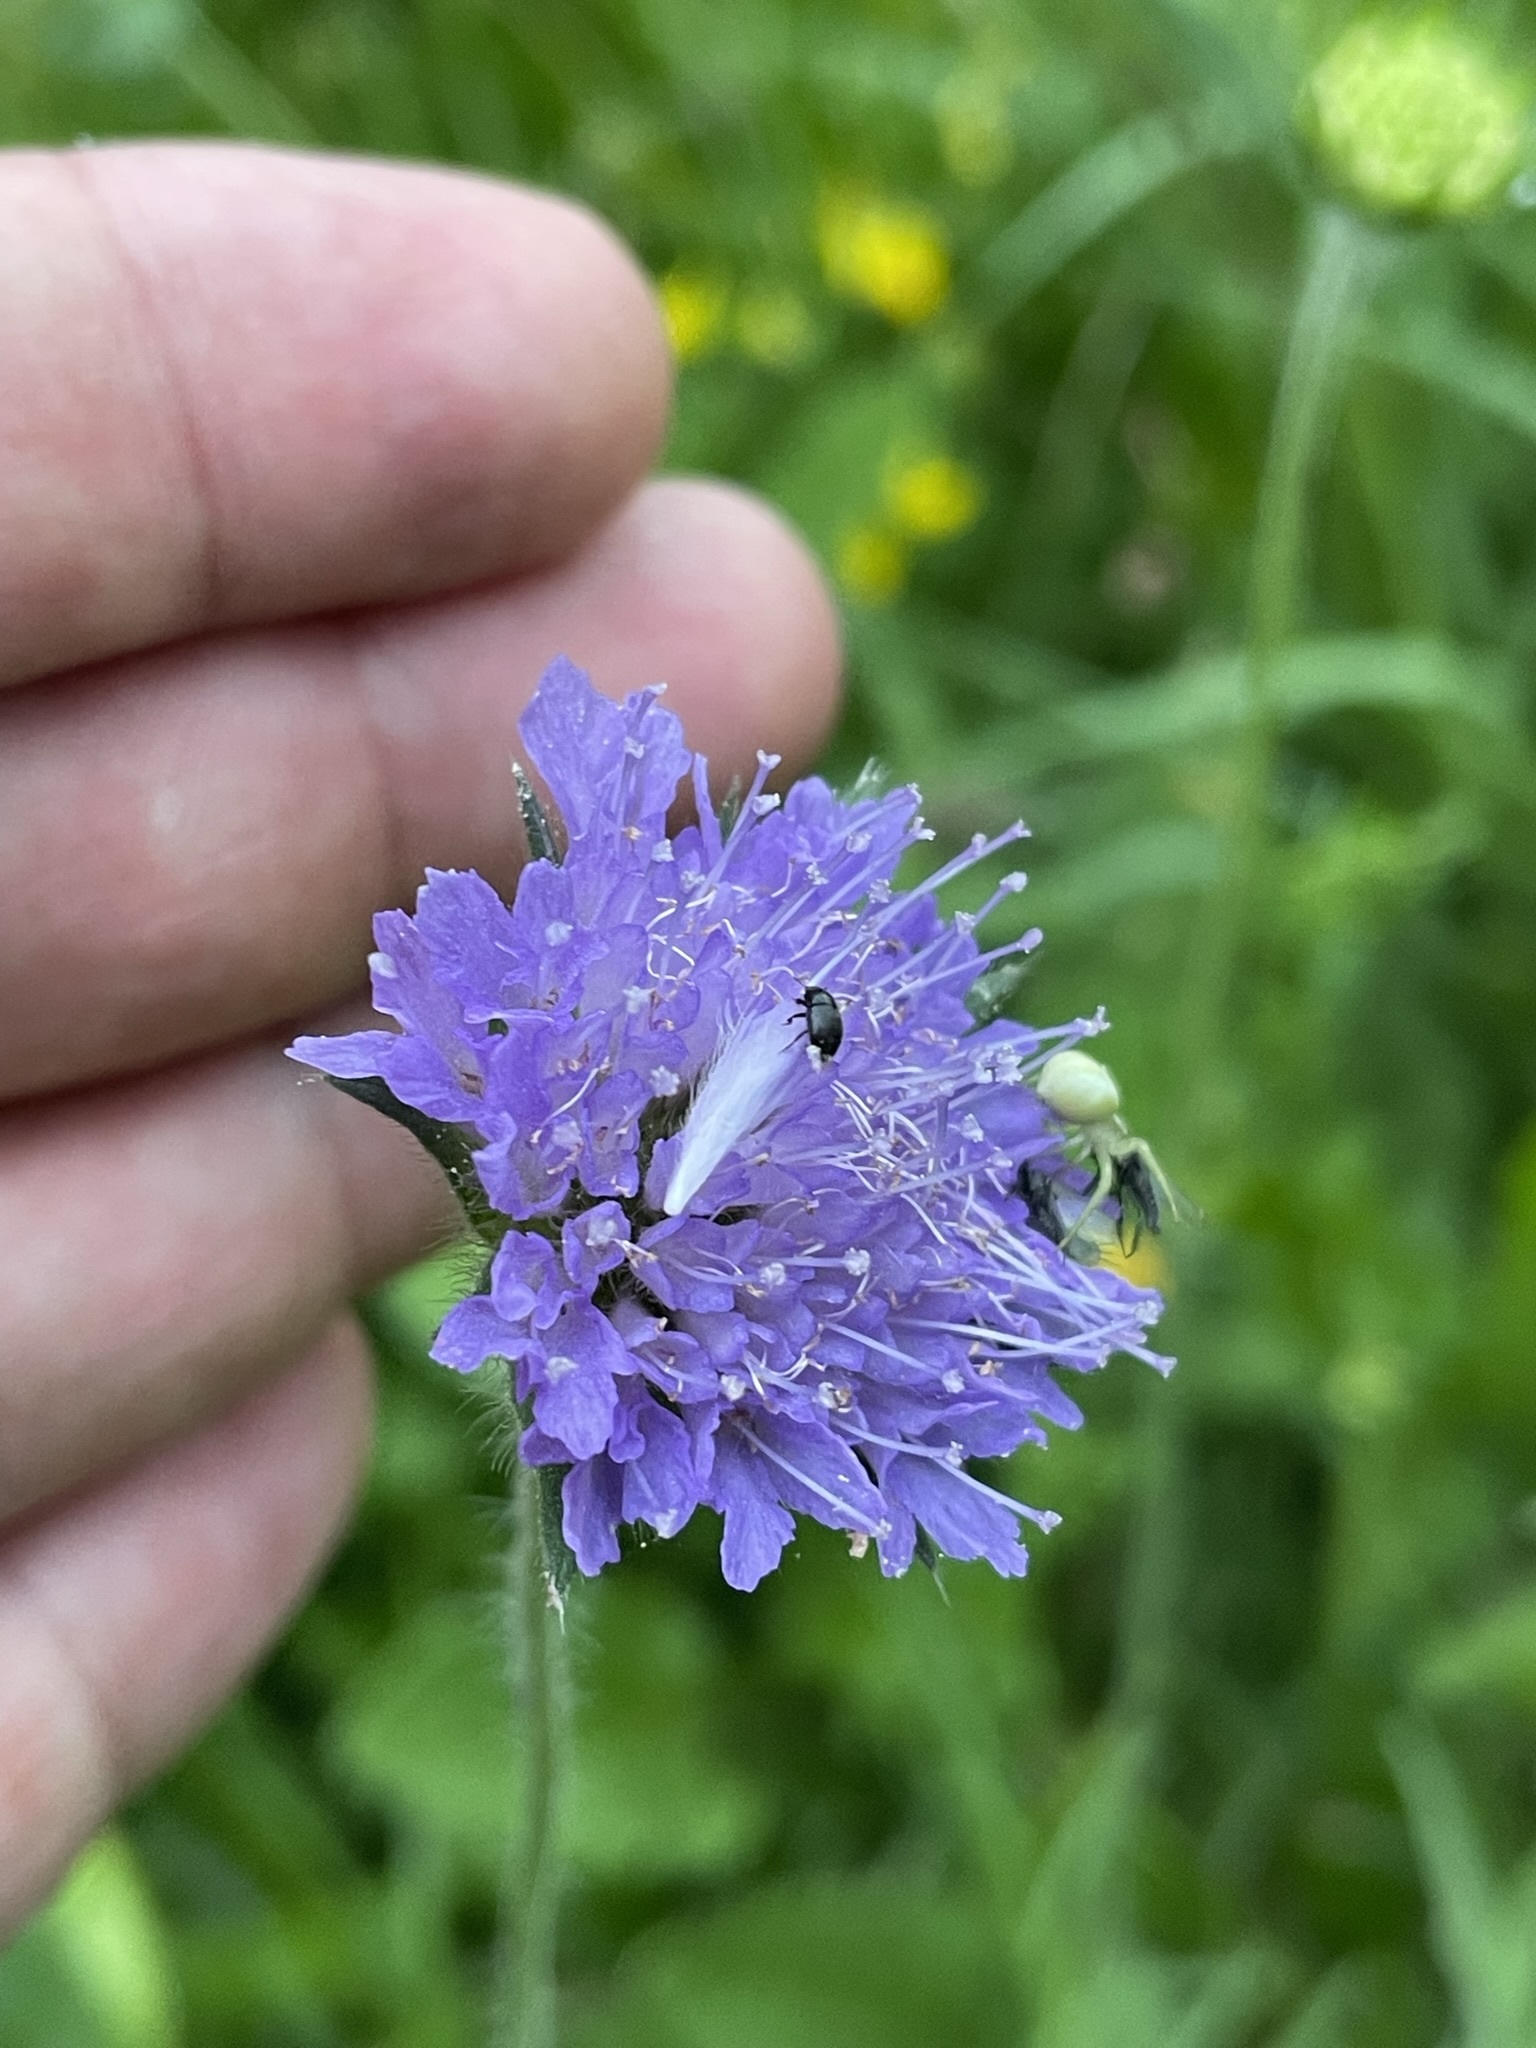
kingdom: Plantae
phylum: Tracheophyta
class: Magnoliopsida
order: Dipsacales
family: Caprifoliaceae
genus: Knautia
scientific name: Knautia arvensis
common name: Field scabiosa
